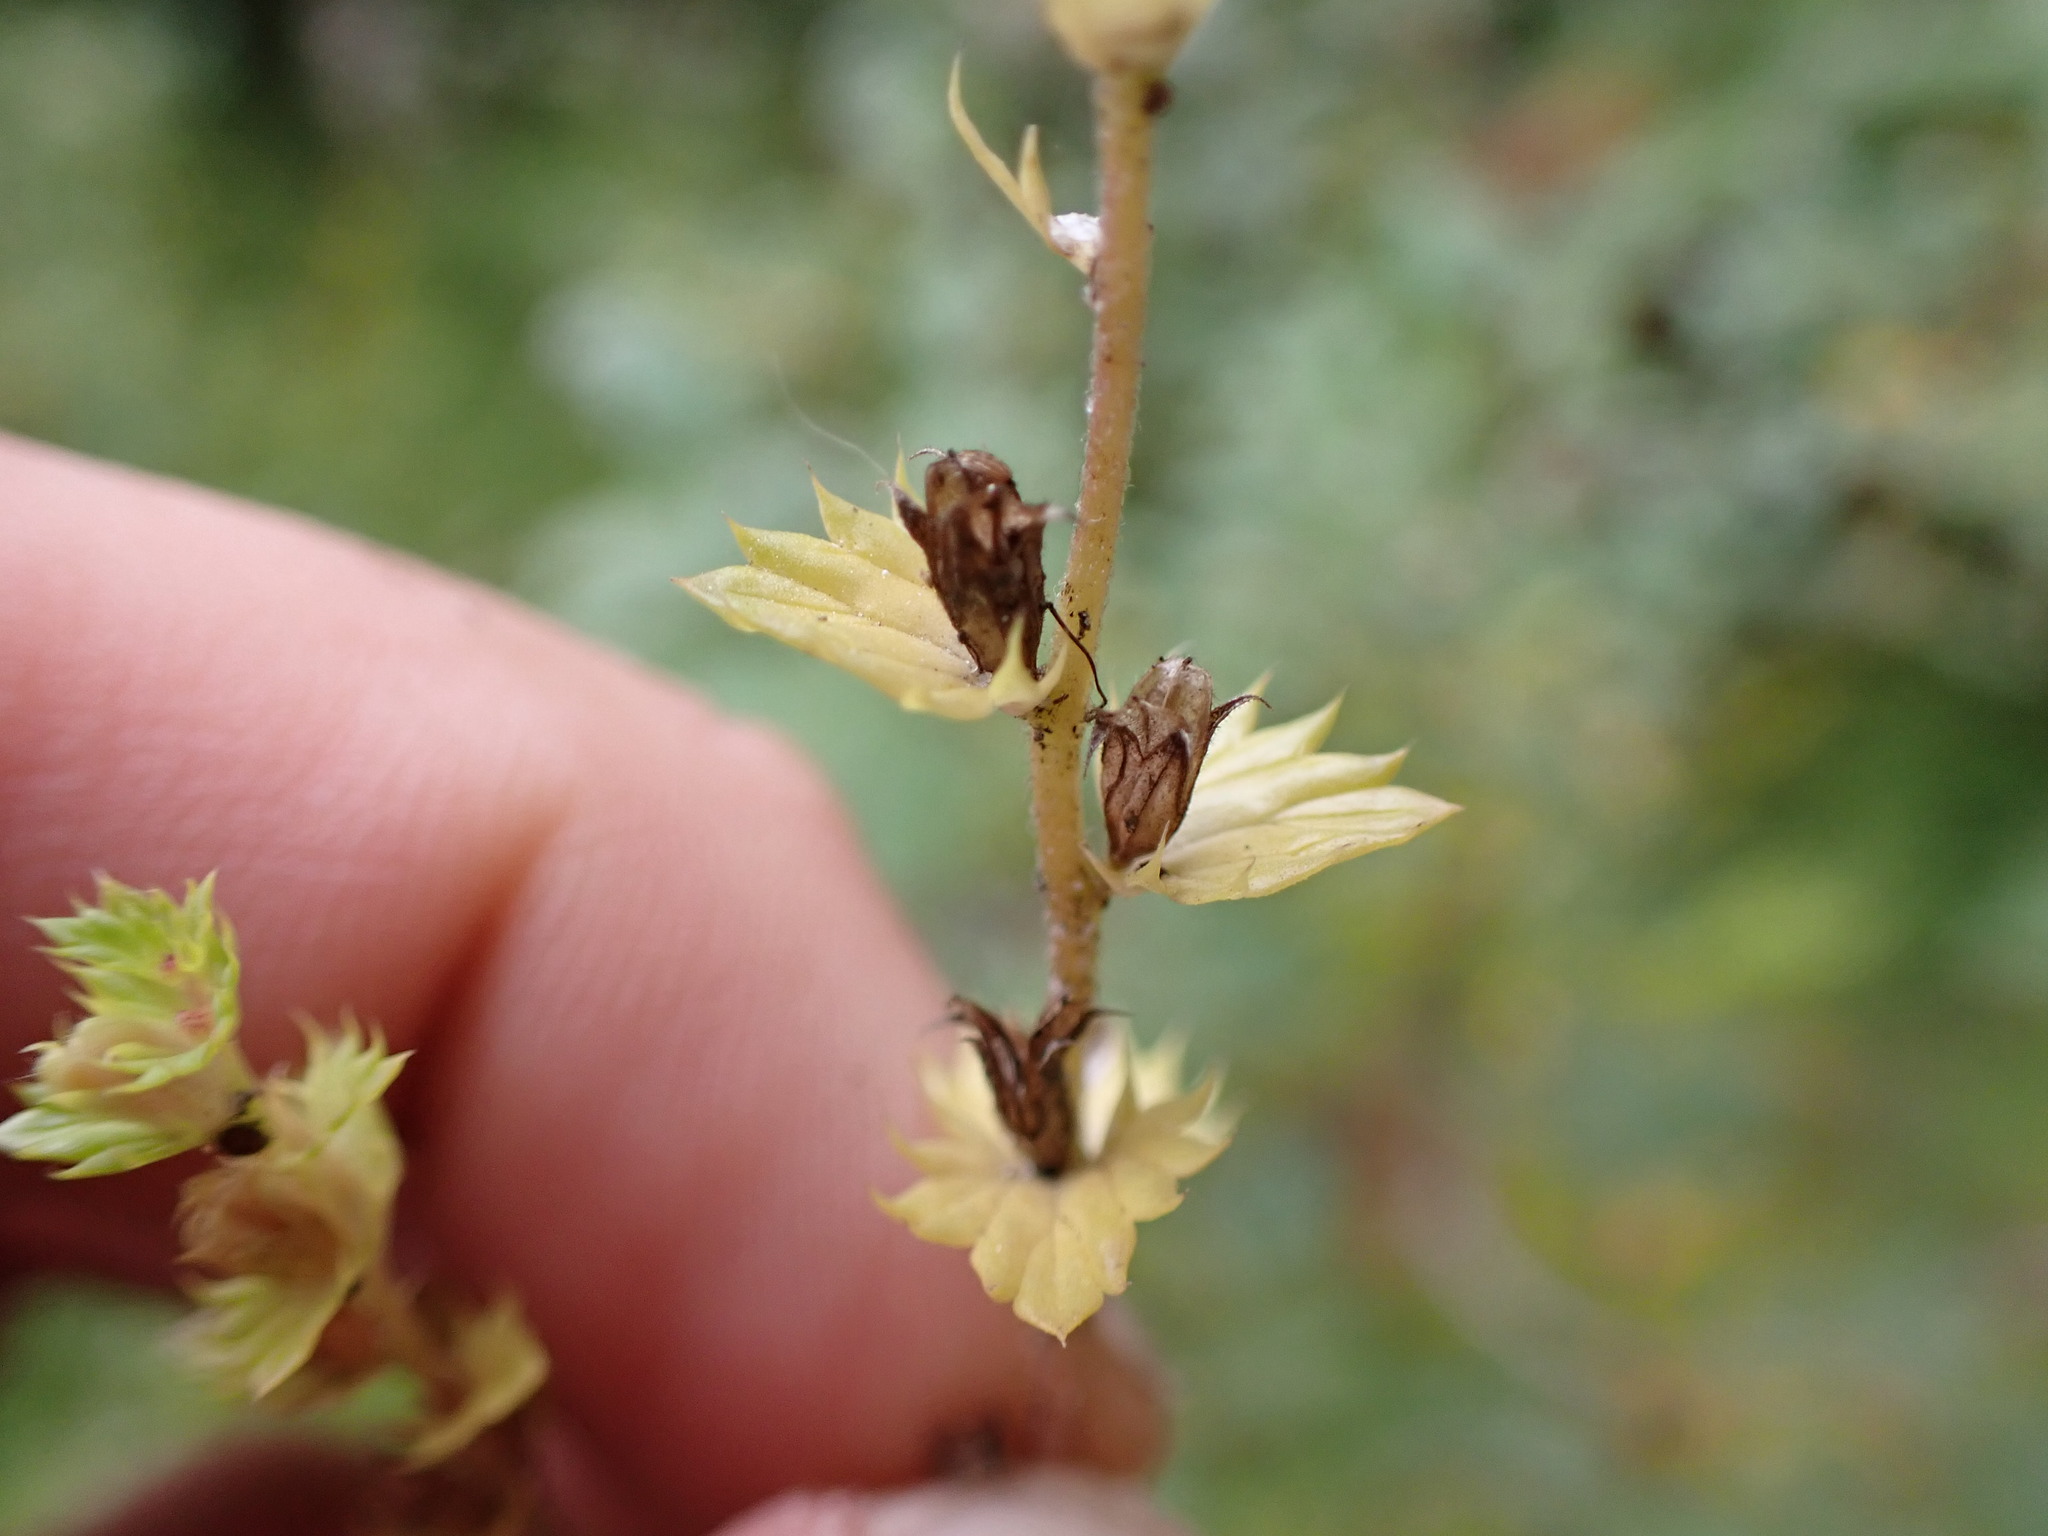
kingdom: Plantae
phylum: Tracheophyta
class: Magnoliopsida
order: Lamiales
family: Orobanchaceae
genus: Euphrasia
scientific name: Euphrasia nemorosa
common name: Common eyebright
